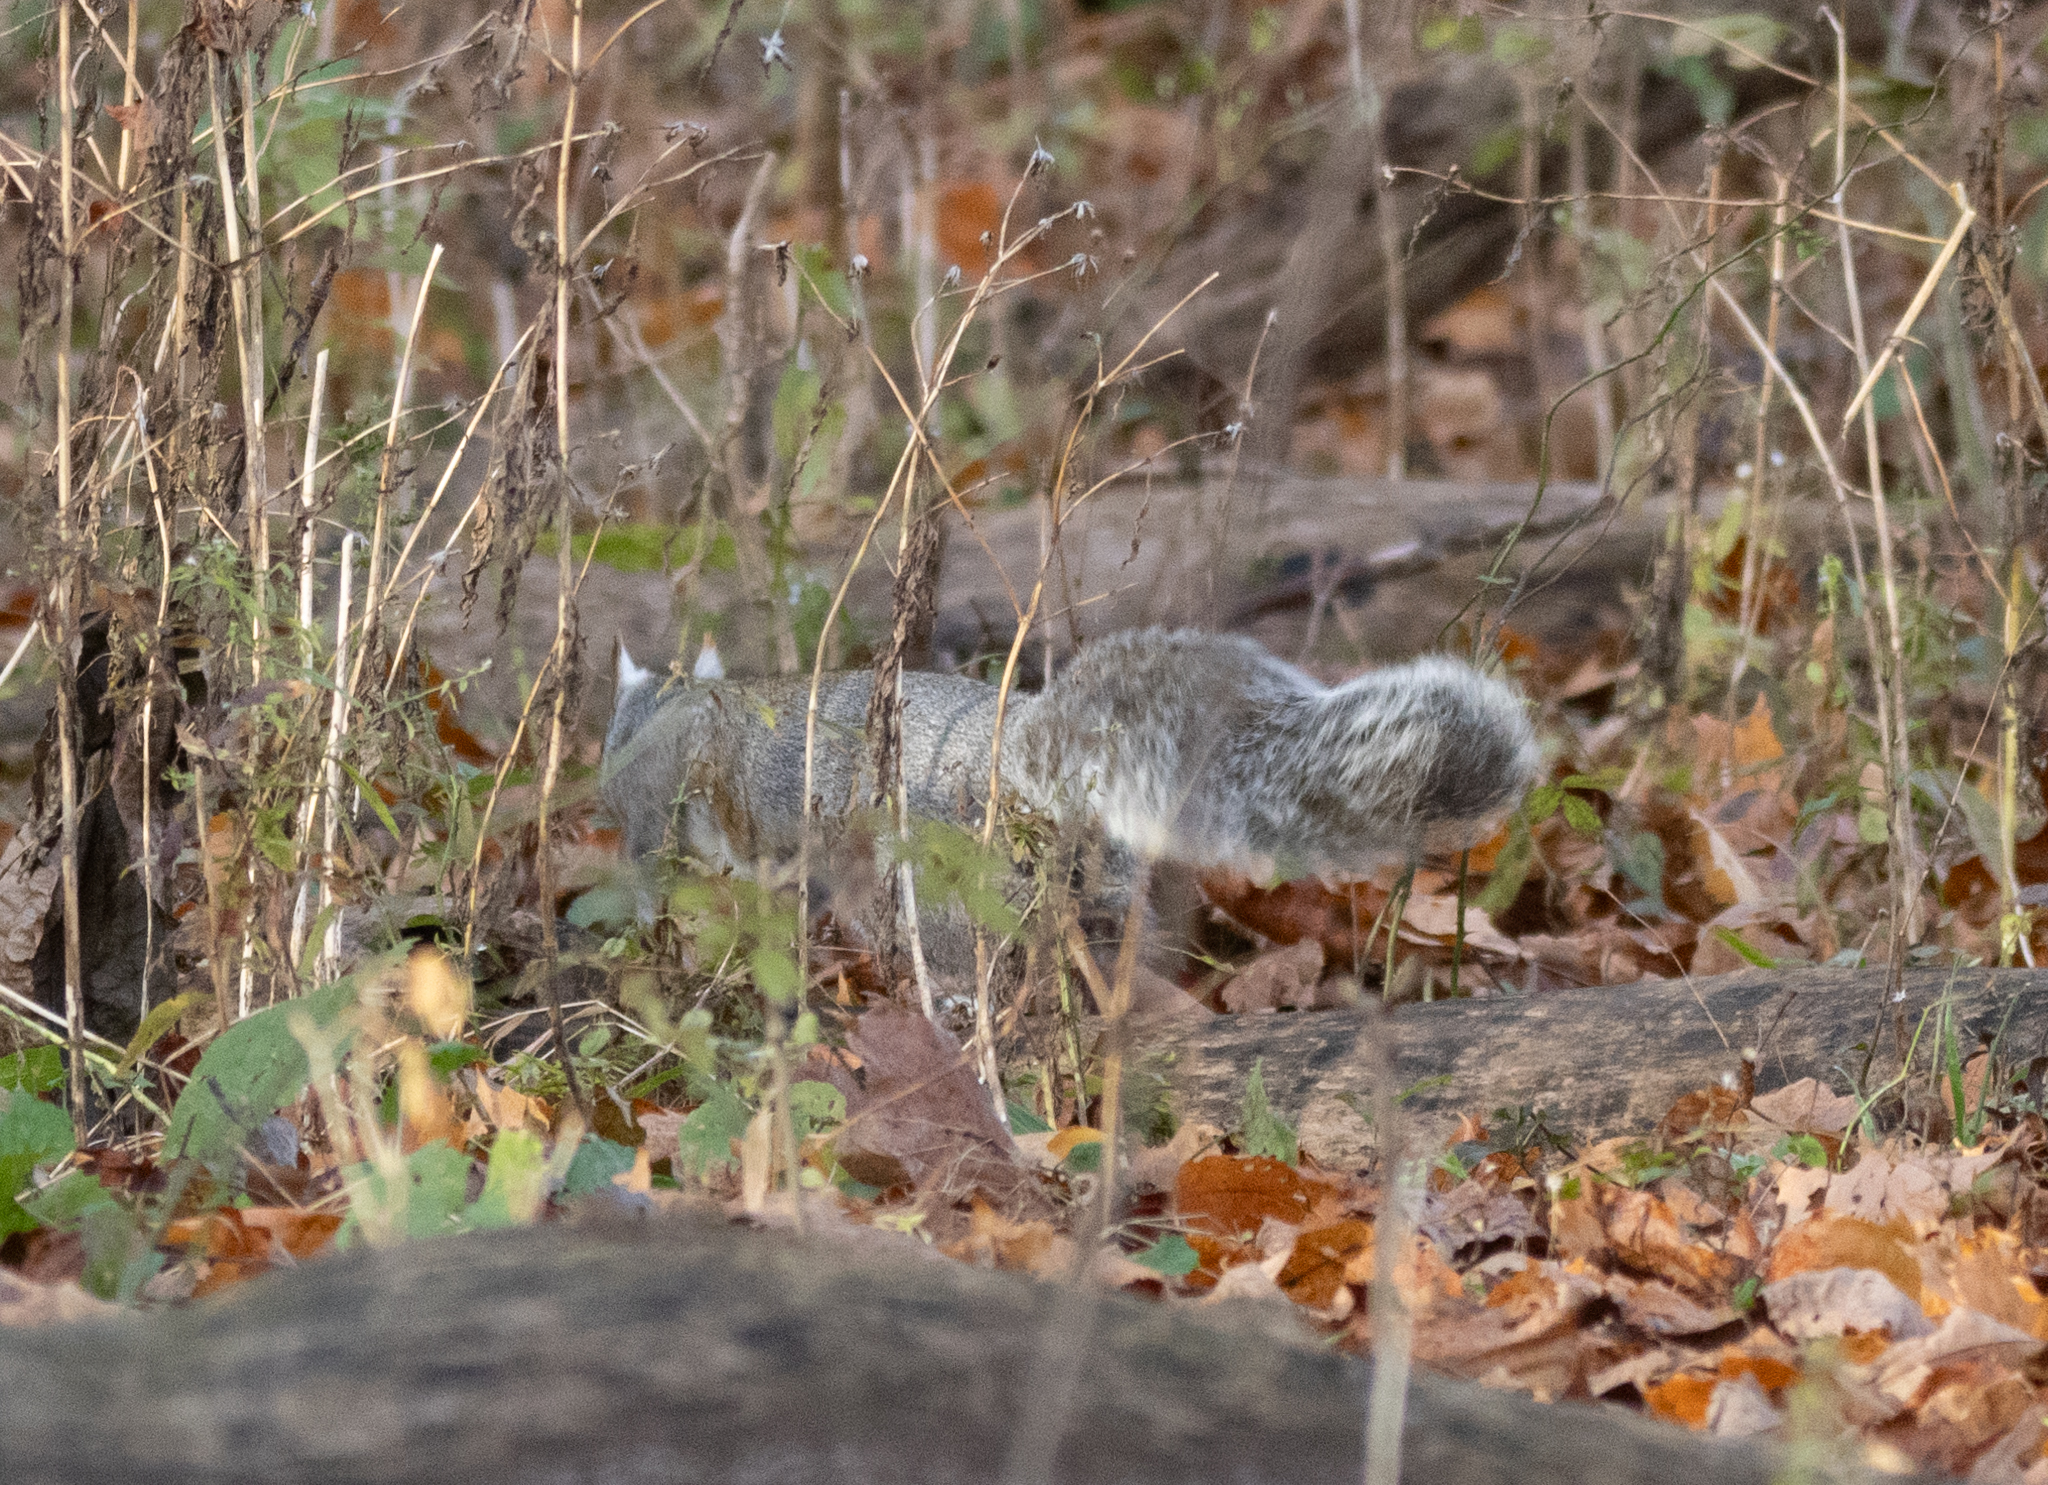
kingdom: Animalia
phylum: Chordata
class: Mammalia
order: Rodentia
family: Sciuridae
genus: Sciurus
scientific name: Sciurus carolinensis
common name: Eastern gray squirrel
